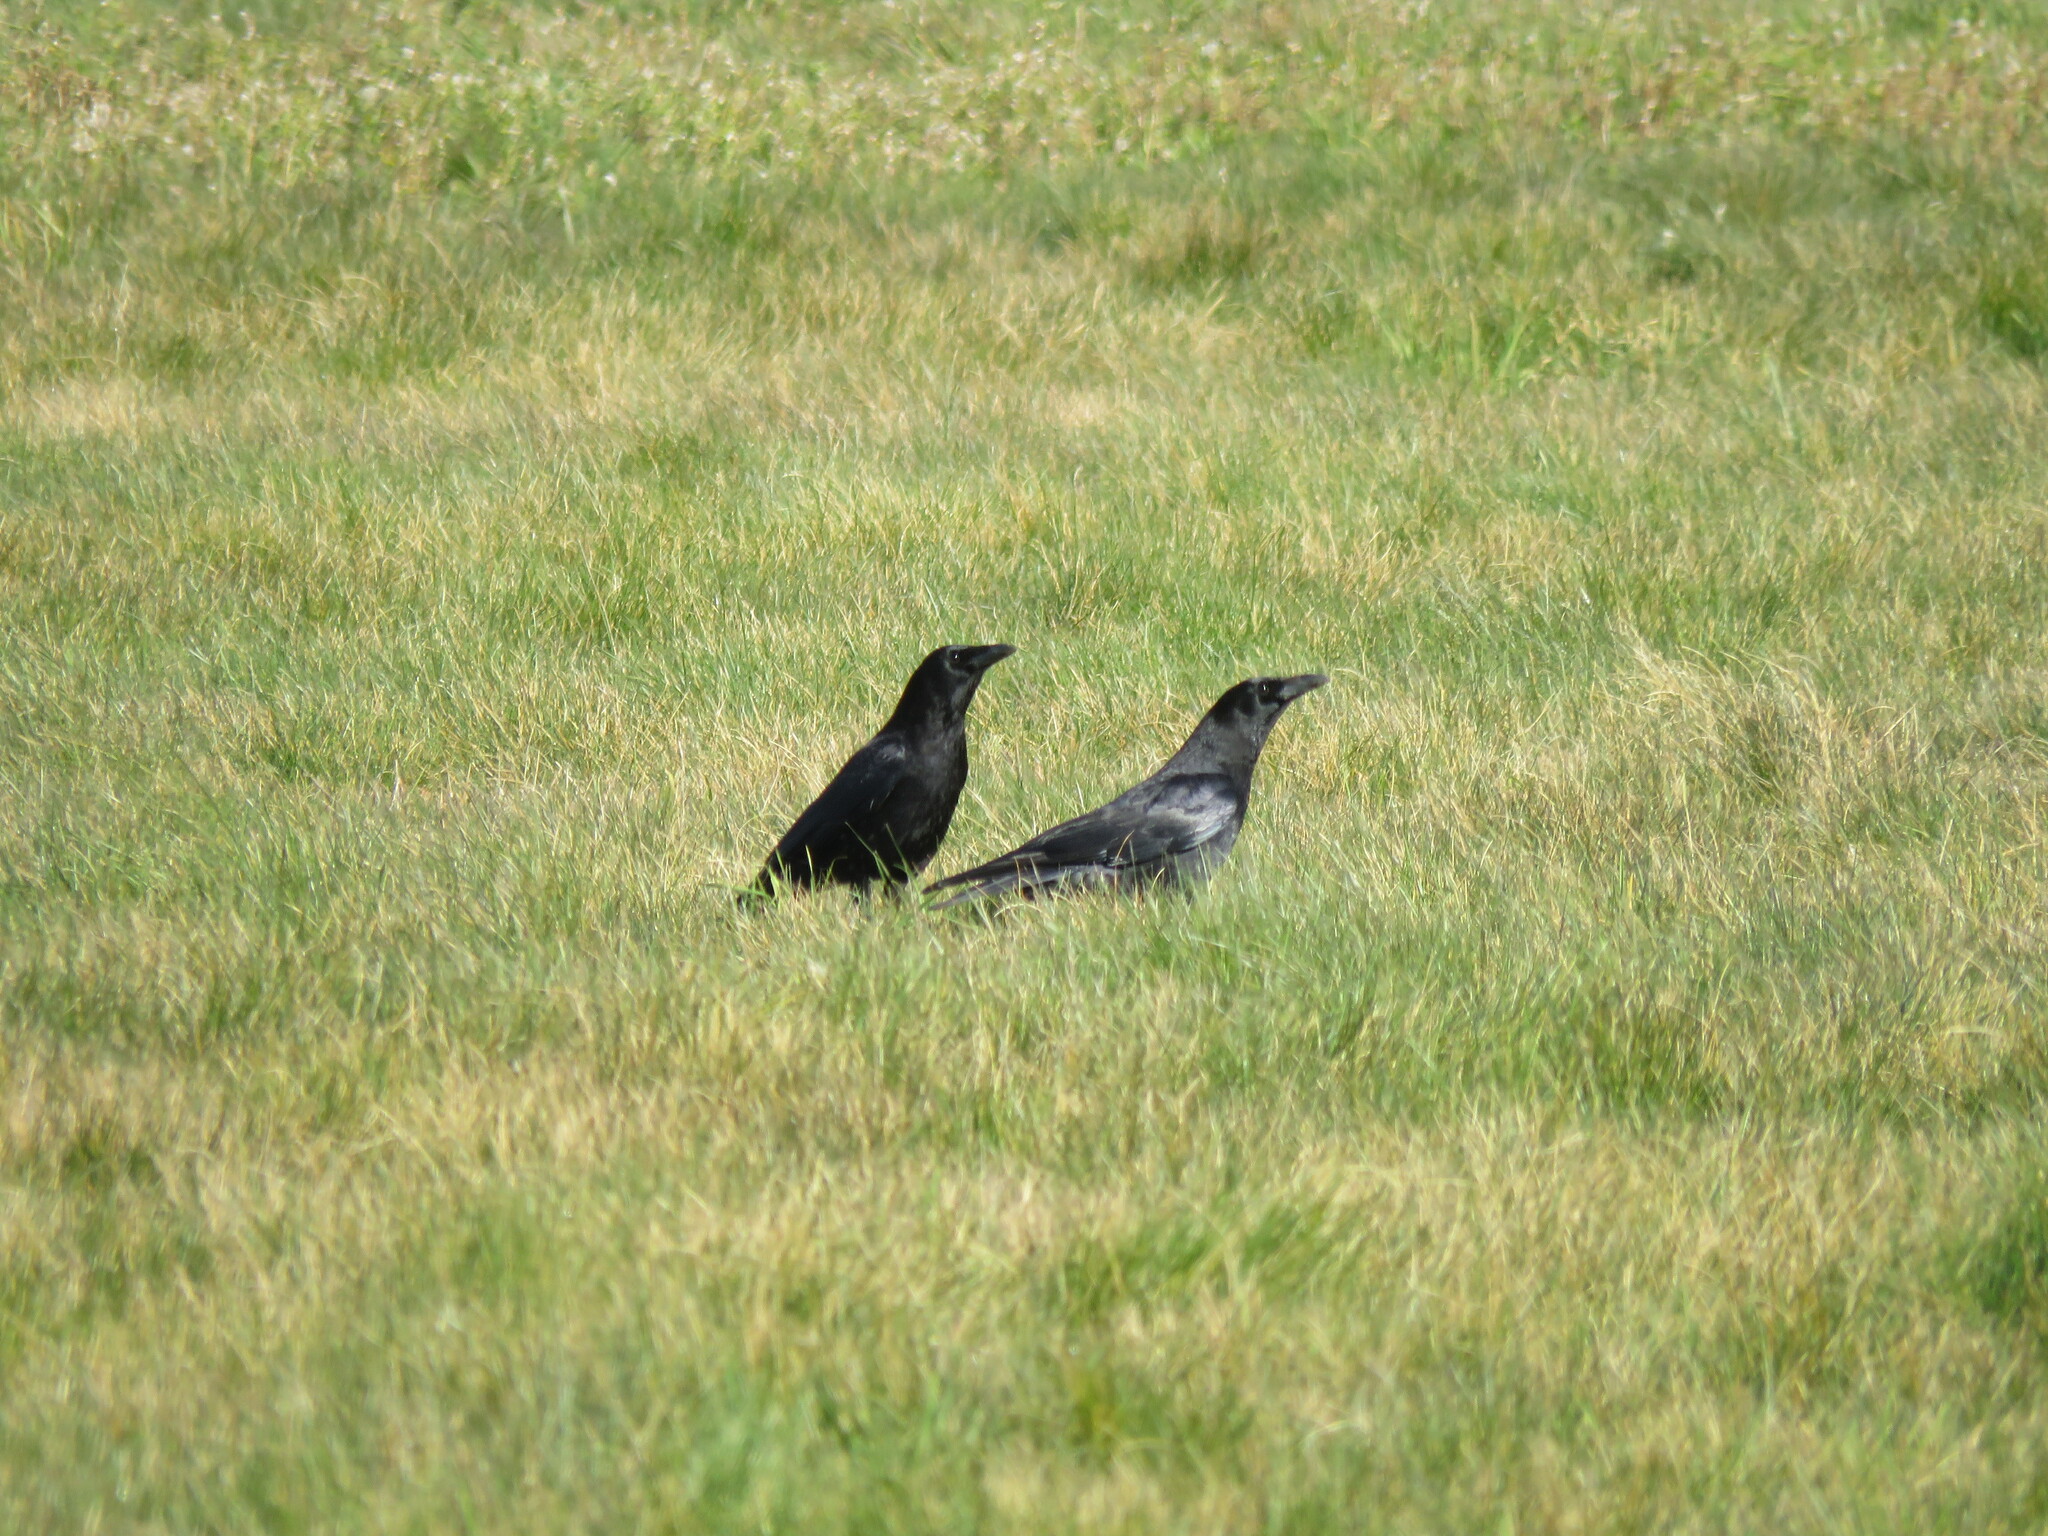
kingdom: Animalia
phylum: Chordata
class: Aves
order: Passeriformes
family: Corvidae
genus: Corvus
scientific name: Corvus corone
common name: Carrion crow
